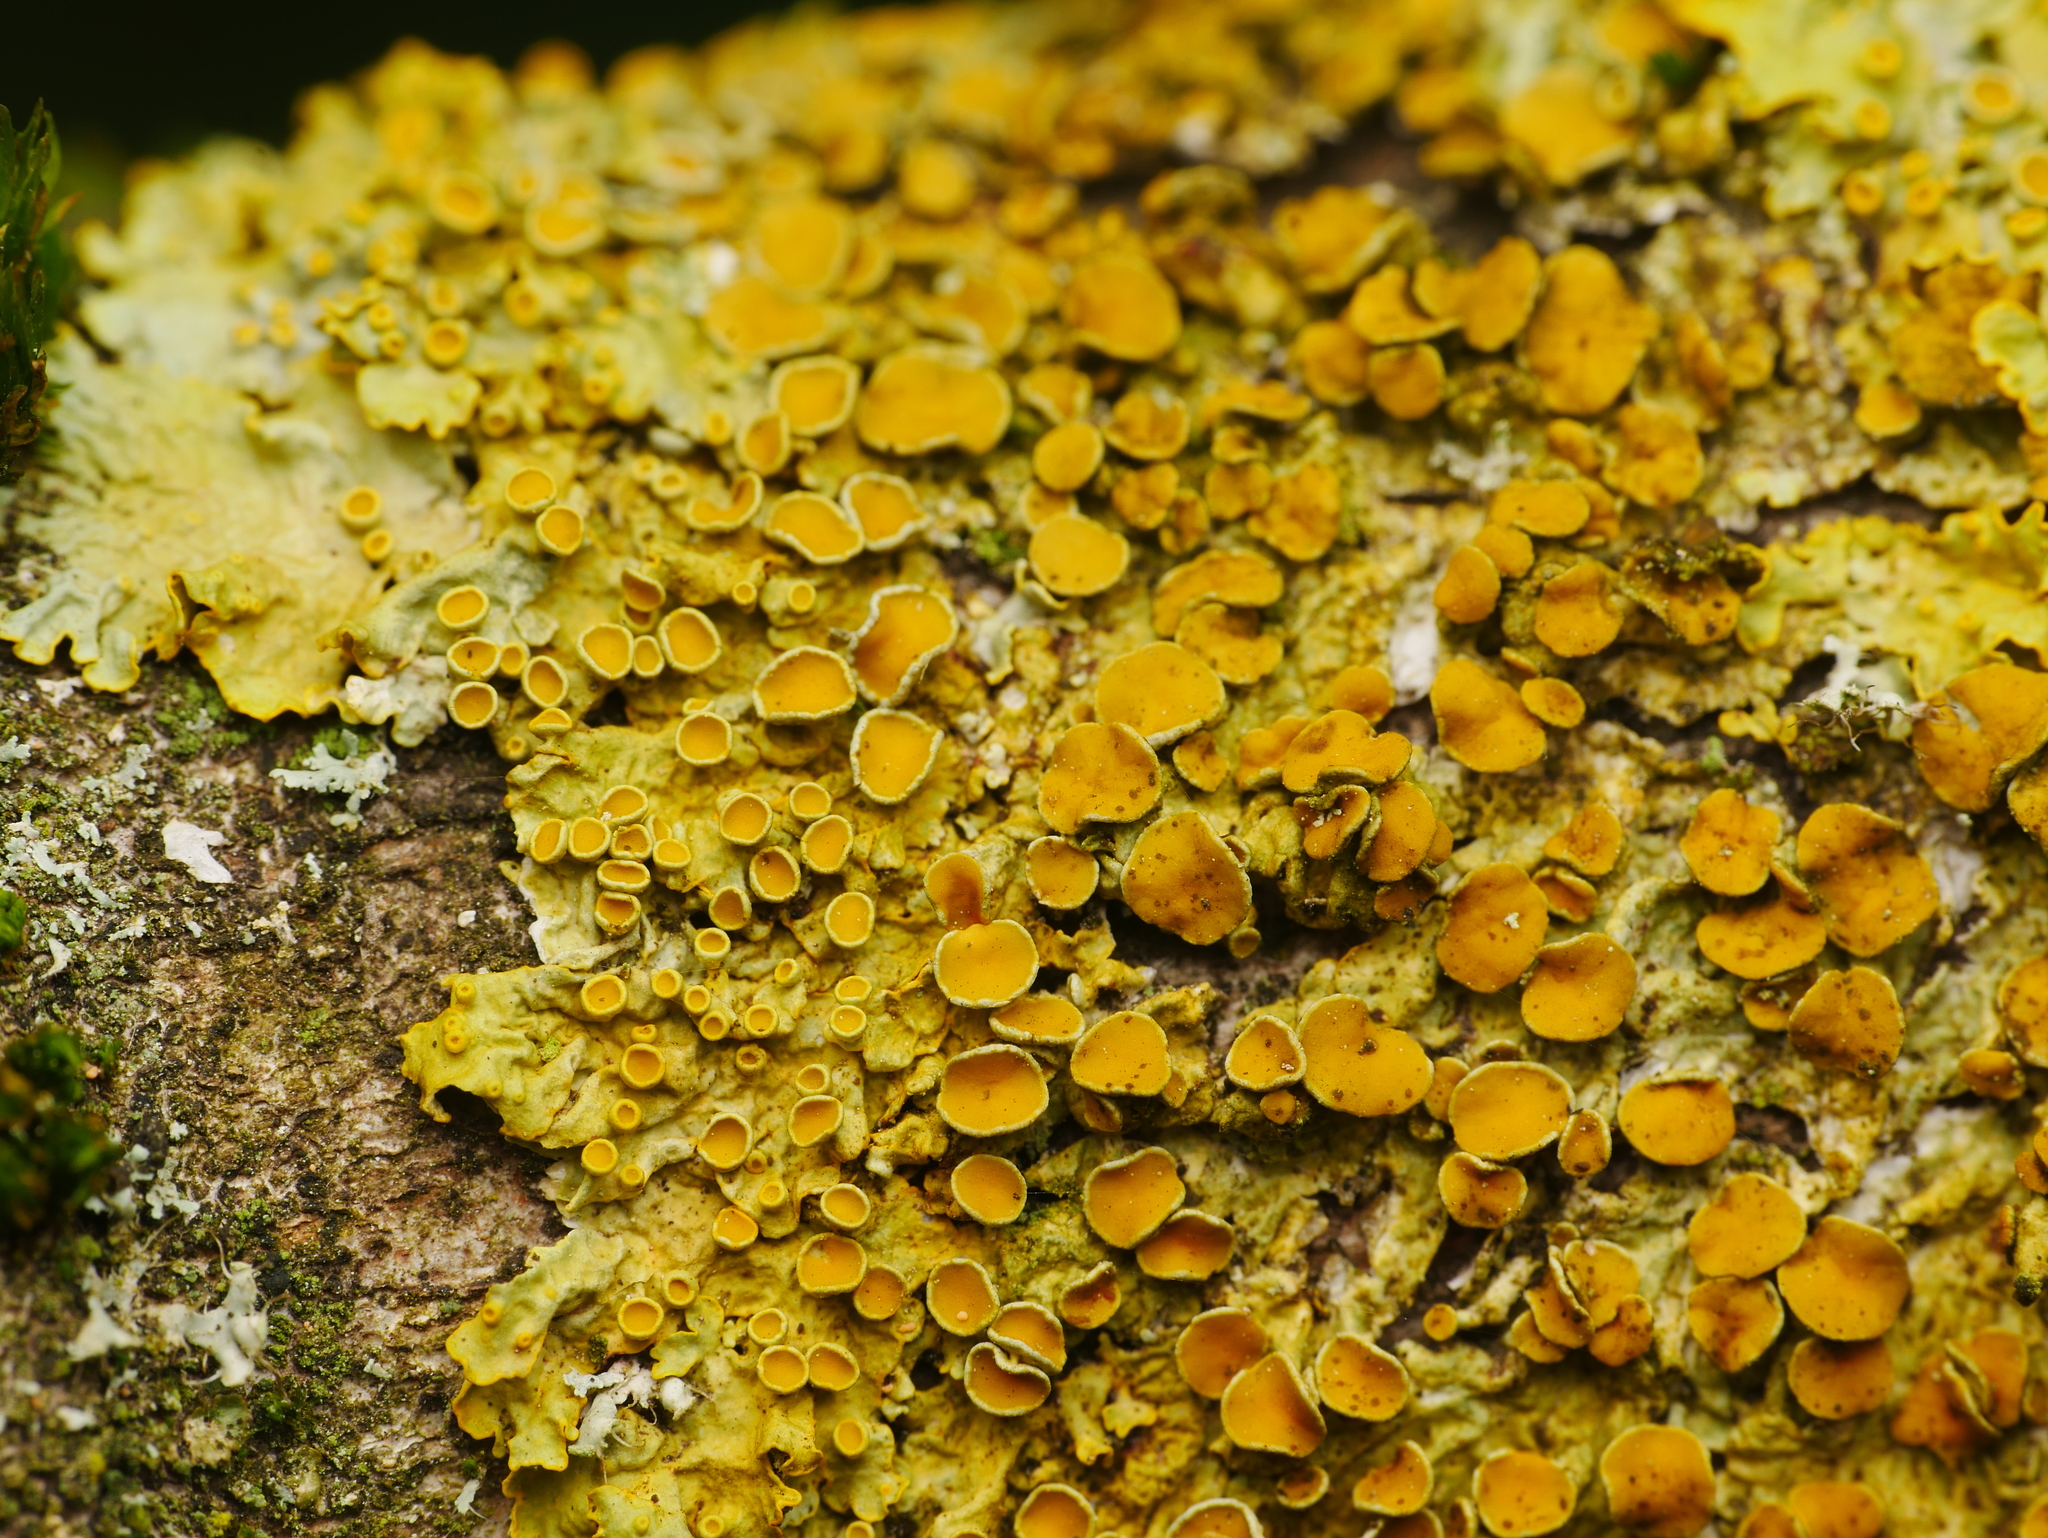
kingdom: Fungi
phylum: Ascomycota
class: Lecanoromycetes
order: Teloschistales
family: Teloschistaceae
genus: Xanthoria
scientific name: Xanthoria parietina
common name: Common orange lichen
